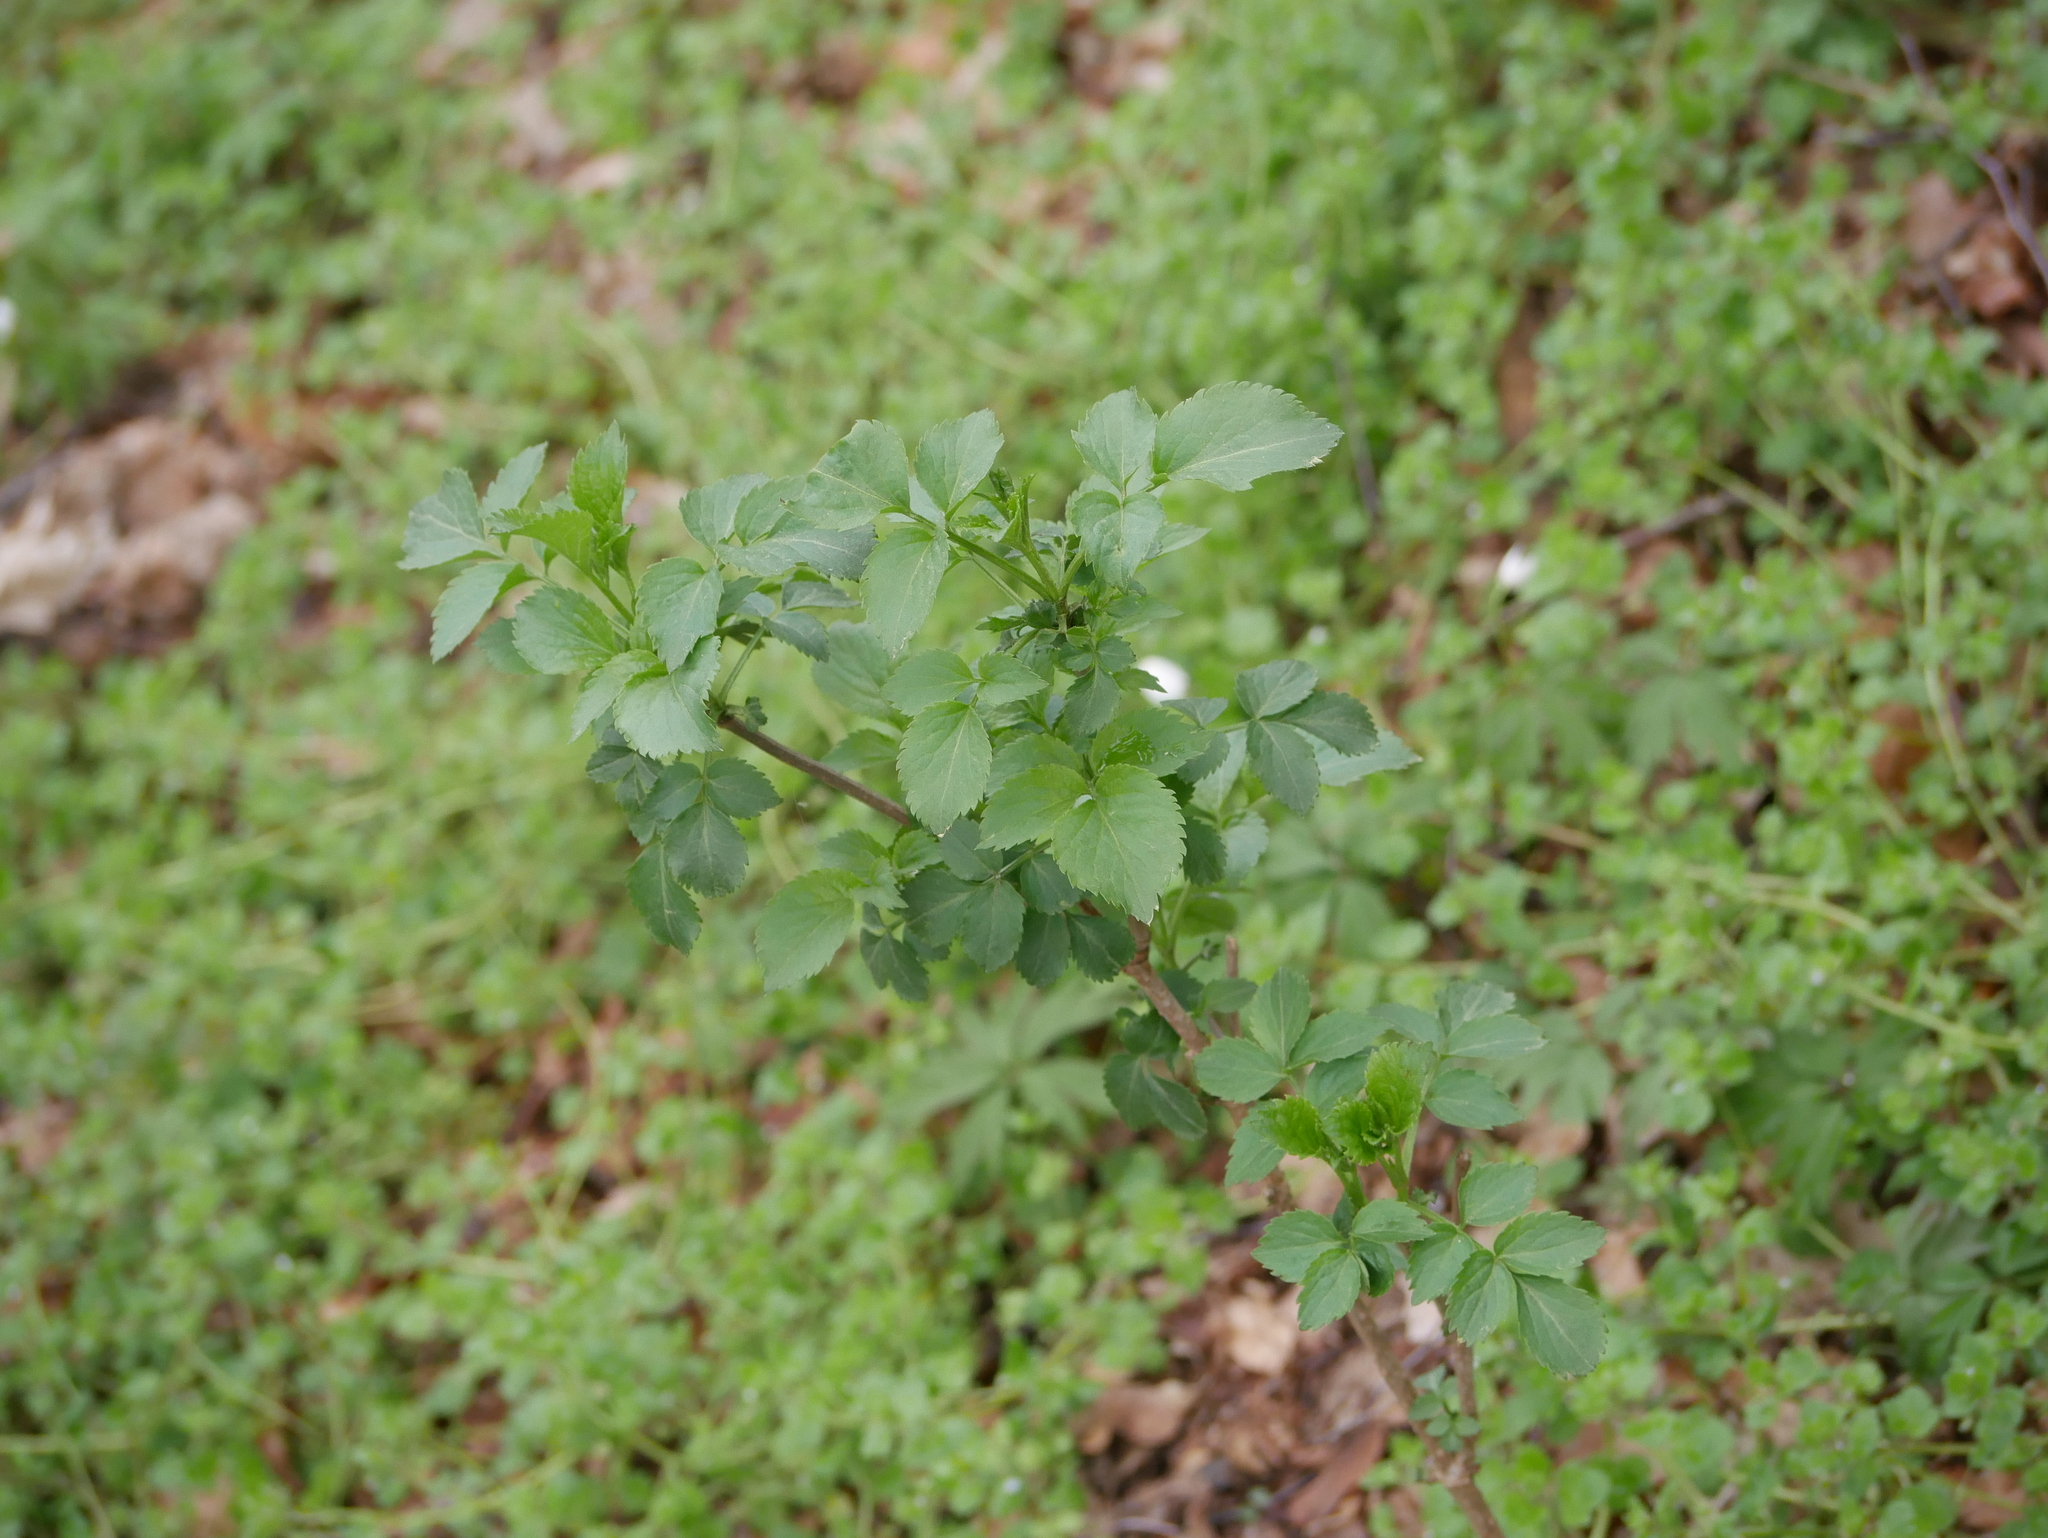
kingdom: Plantae
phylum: Tracheophyta
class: Magnoliopsida
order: Dipsacales
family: Viburnaceae
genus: Sambucus
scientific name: Sambucus nigra
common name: Elder
